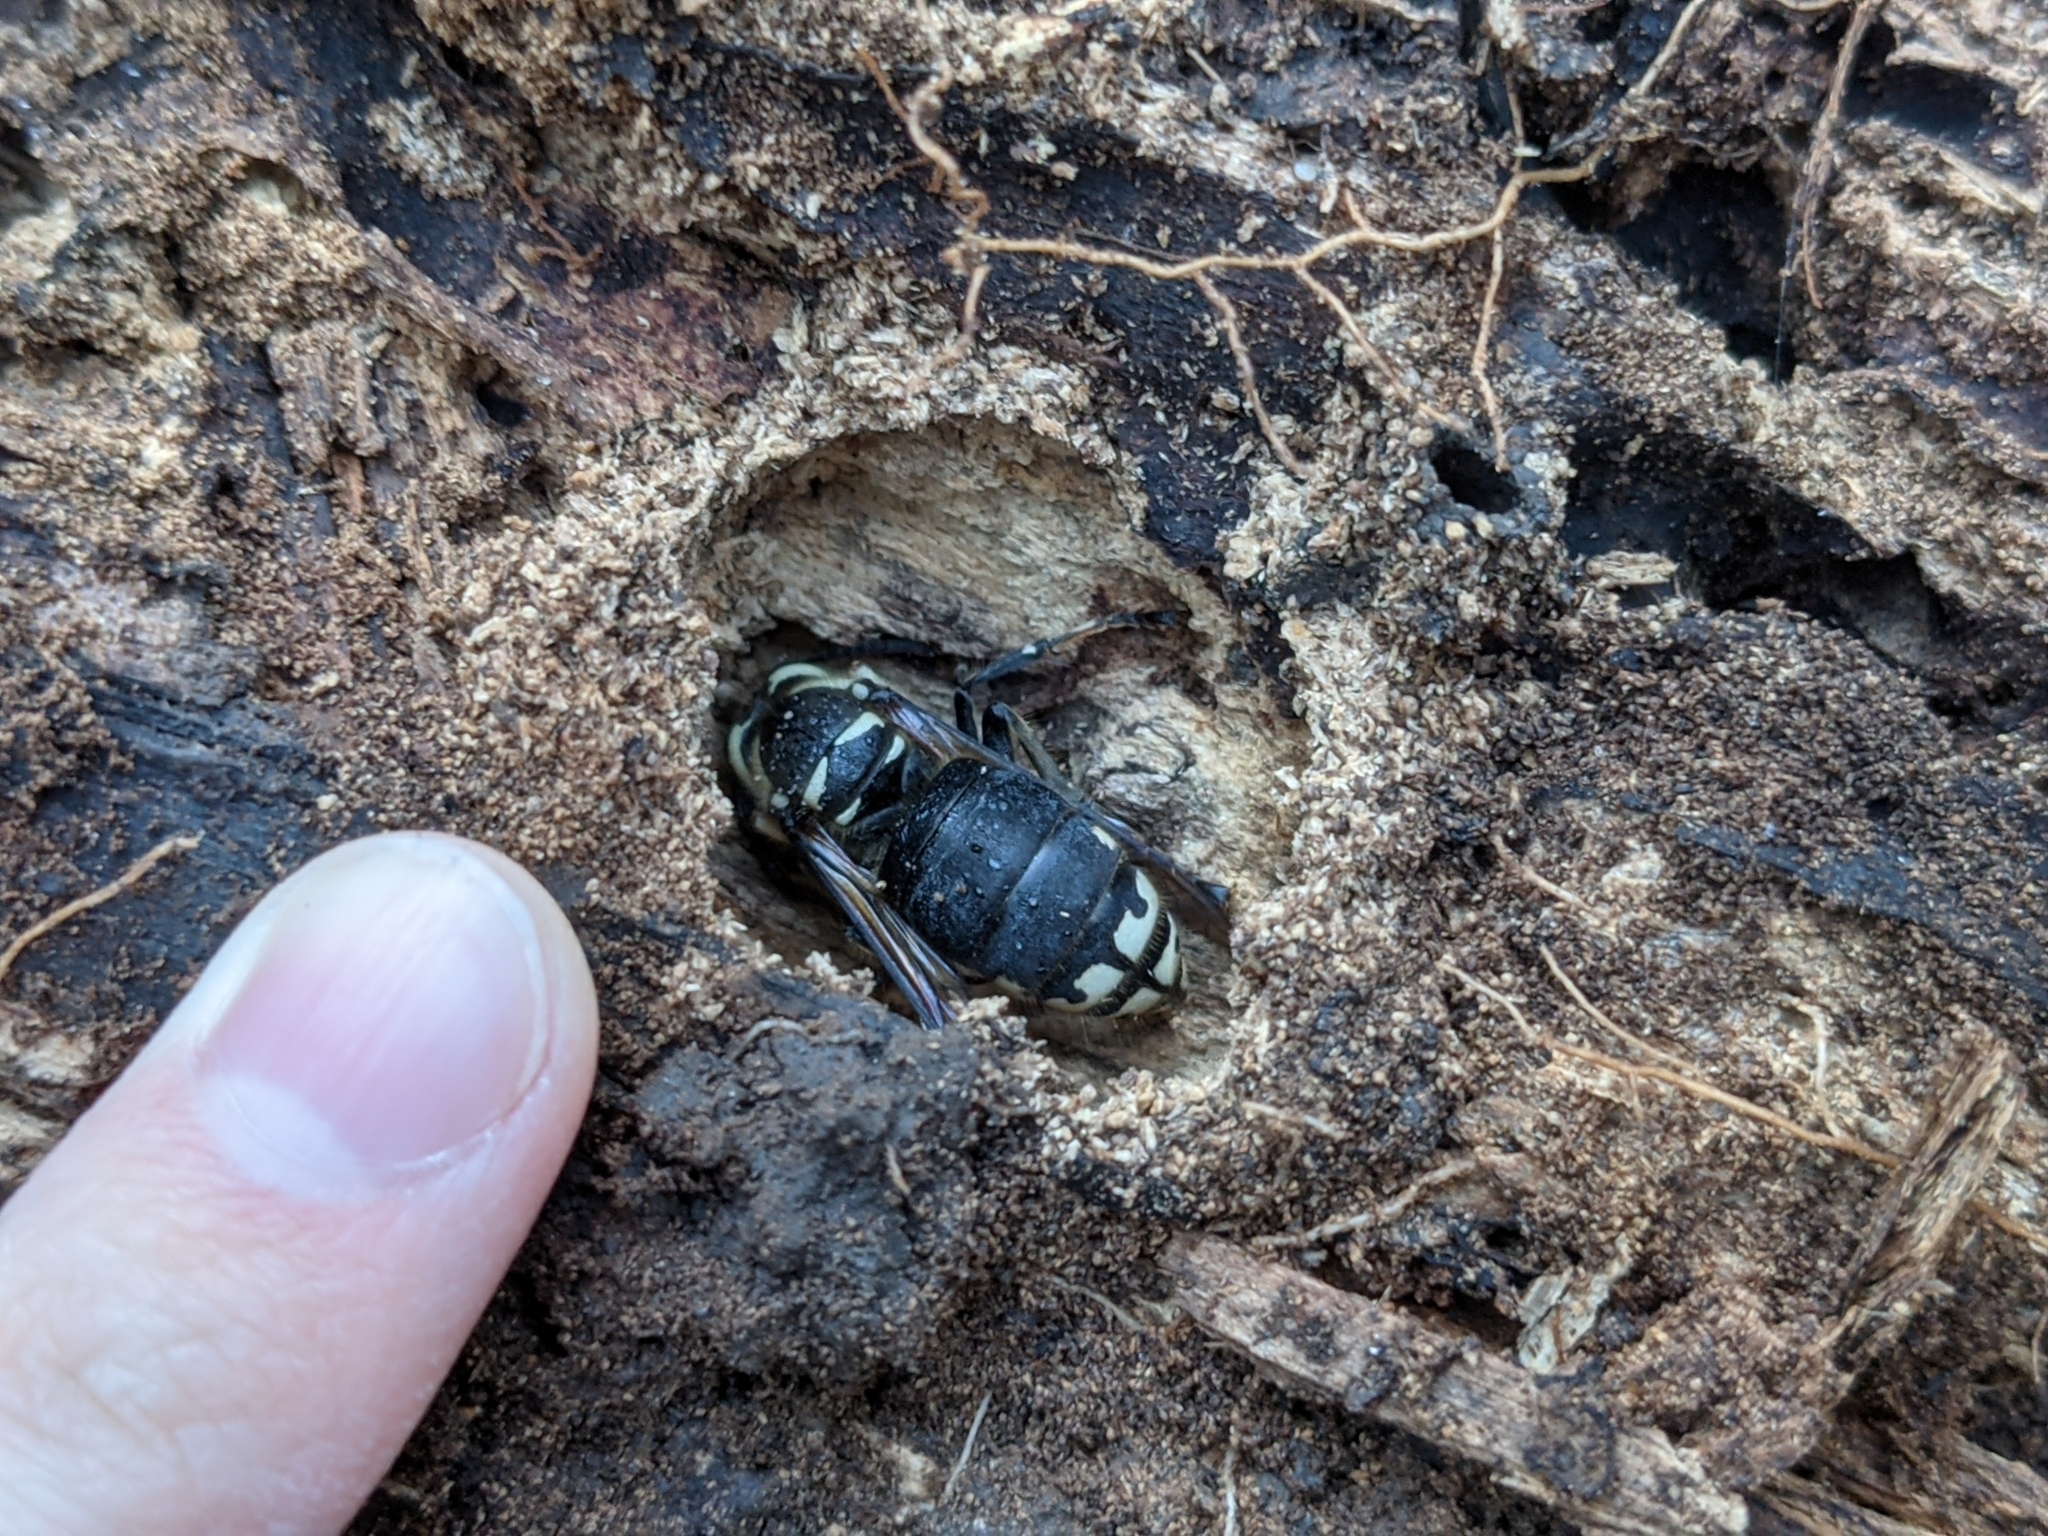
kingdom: Animalia
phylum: Arthropoda
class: Insecta
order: Hymenoptera
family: Vespidae
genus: Dolichovespula
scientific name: Dolichovespula maculata
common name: Bald-faced hornet
